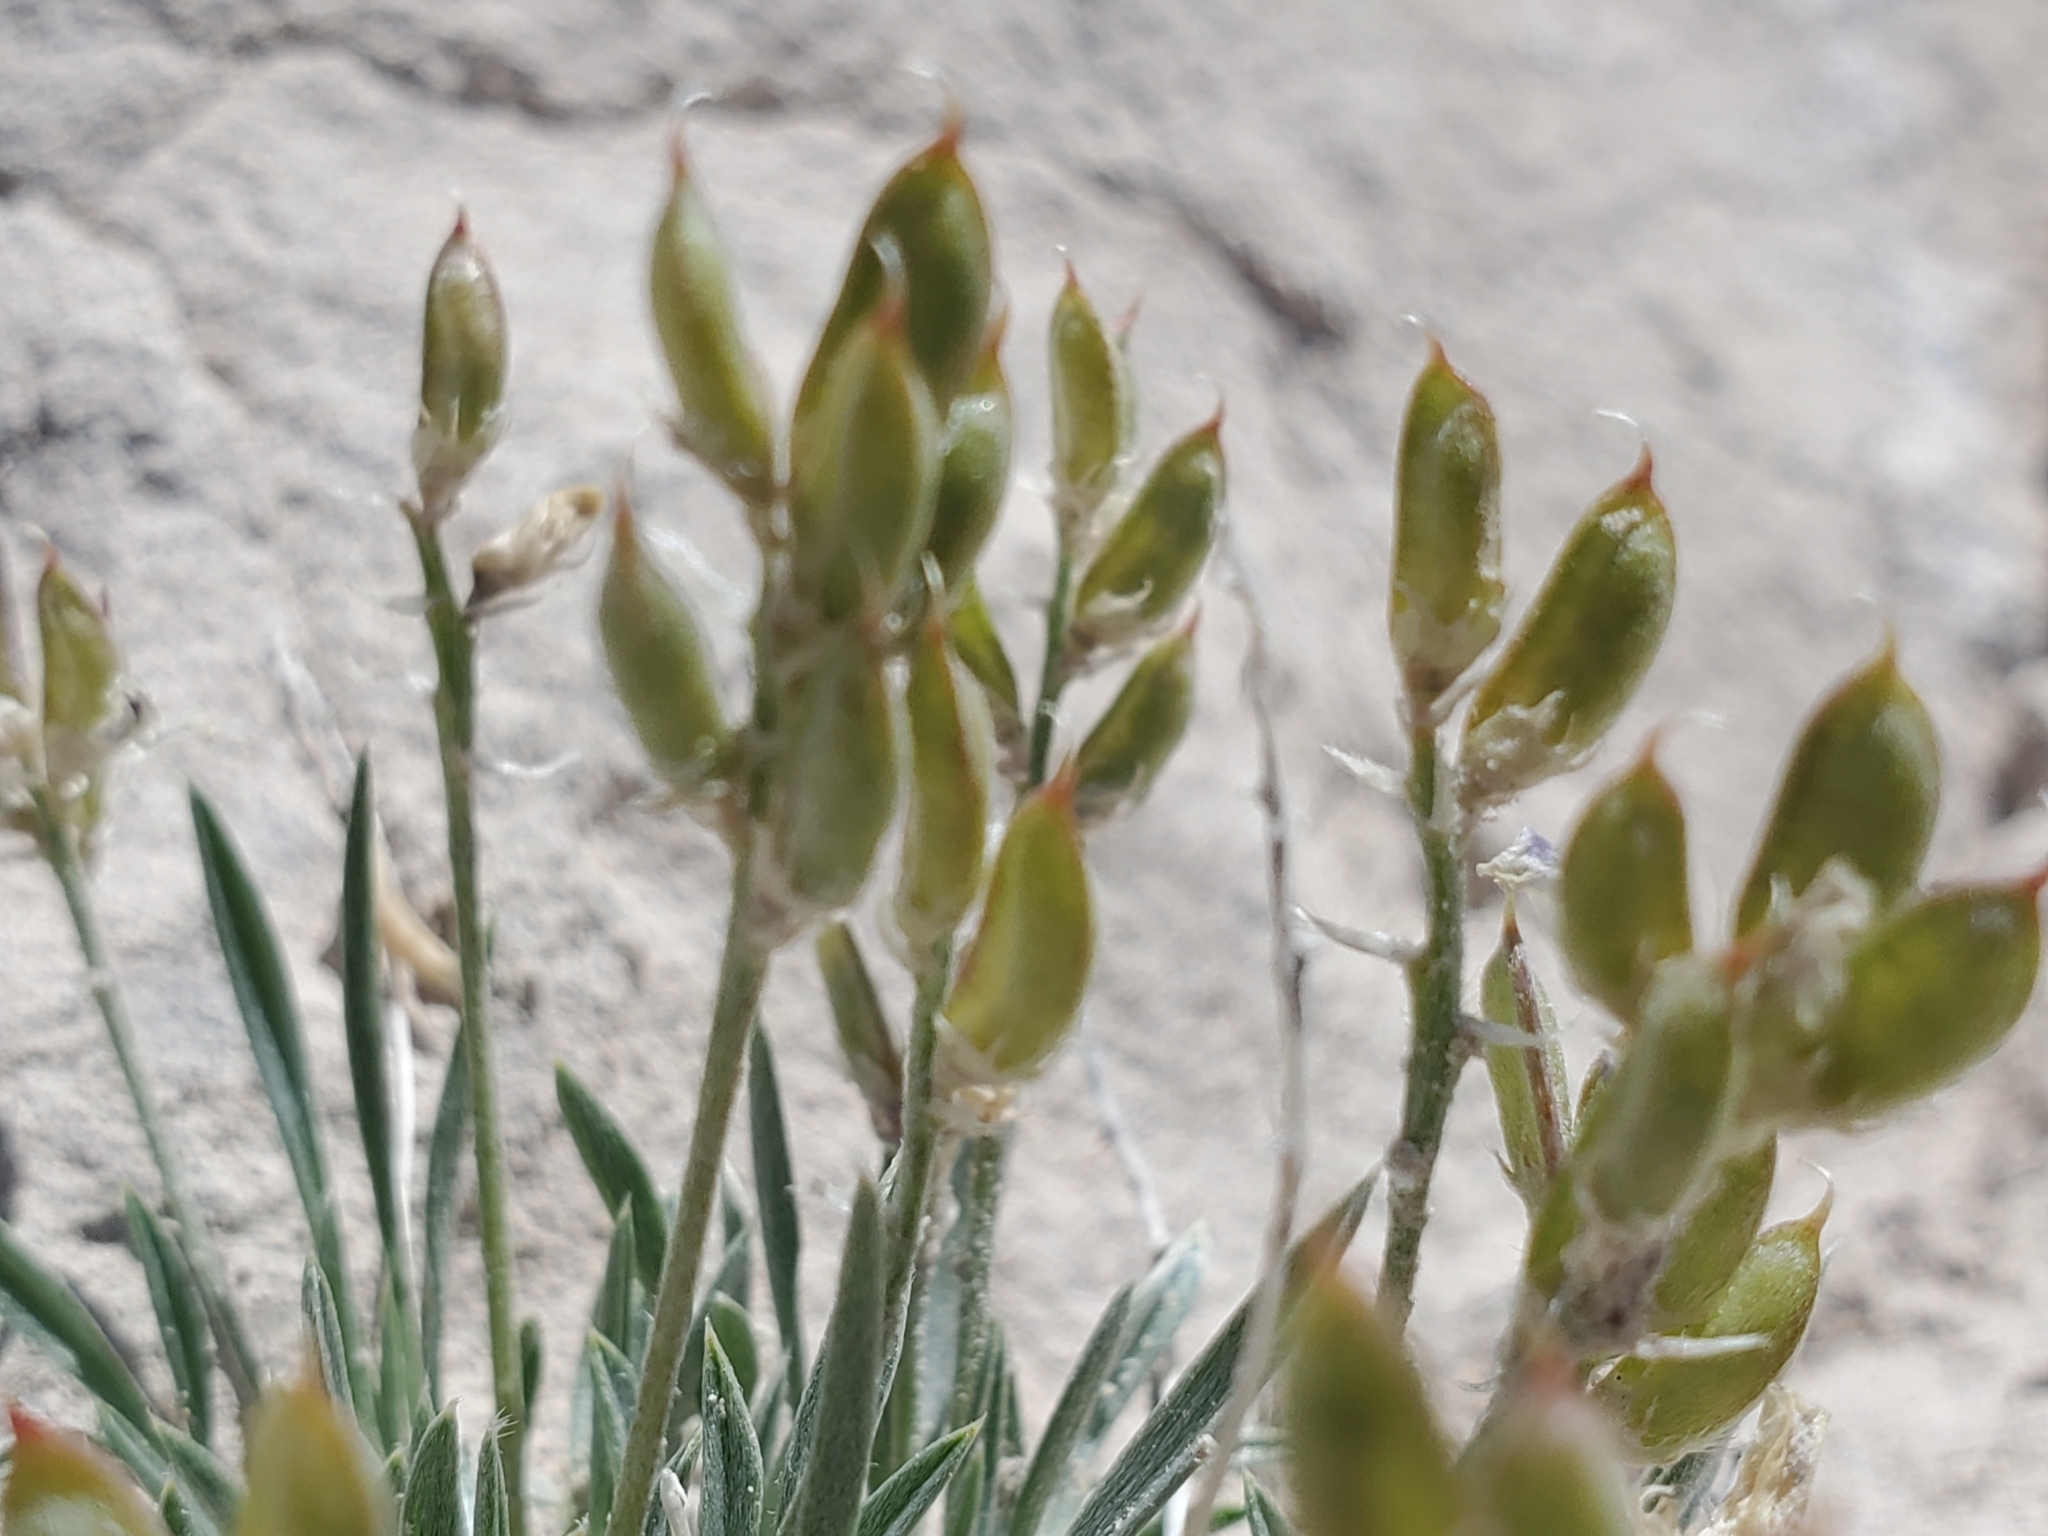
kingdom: Plantae
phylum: Tracheophyta
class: Magnoliopsida
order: Fabales
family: Fabaceae
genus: Astragalus
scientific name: Astragalus spatulatus
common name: Draba milk-vetch
